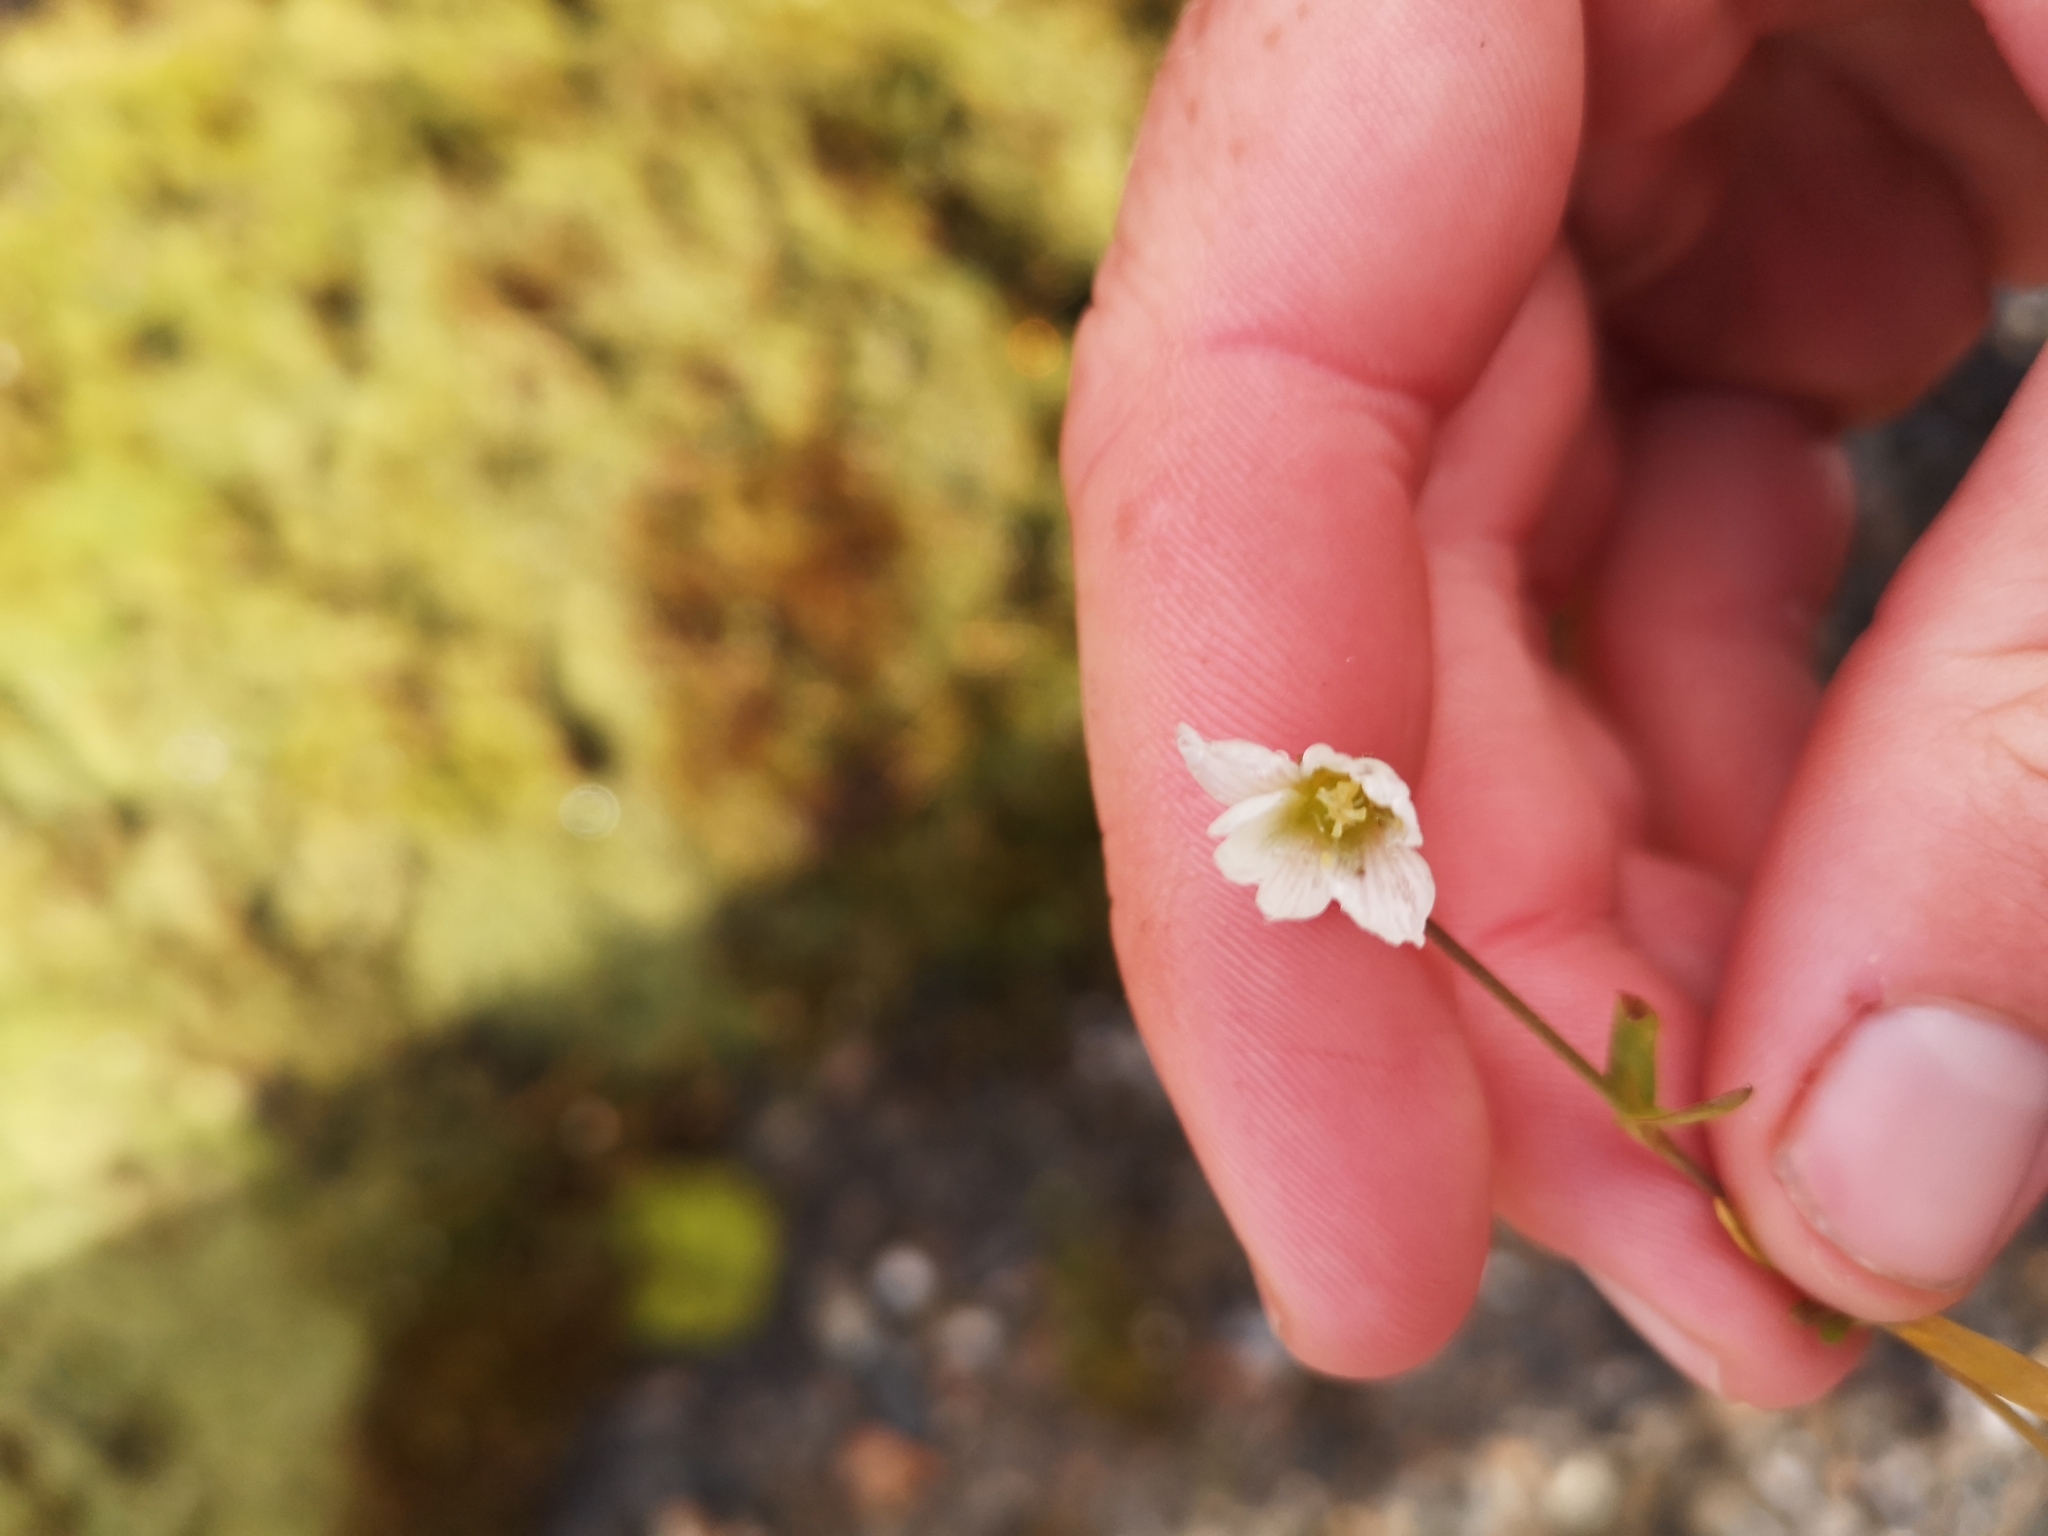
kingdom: Plantae
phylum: Tracheophyta
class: Magnoliopsida
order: Caryophyllales
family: Caryophyllaceae
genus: Dichodon
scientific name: Dichodon cerastoides
